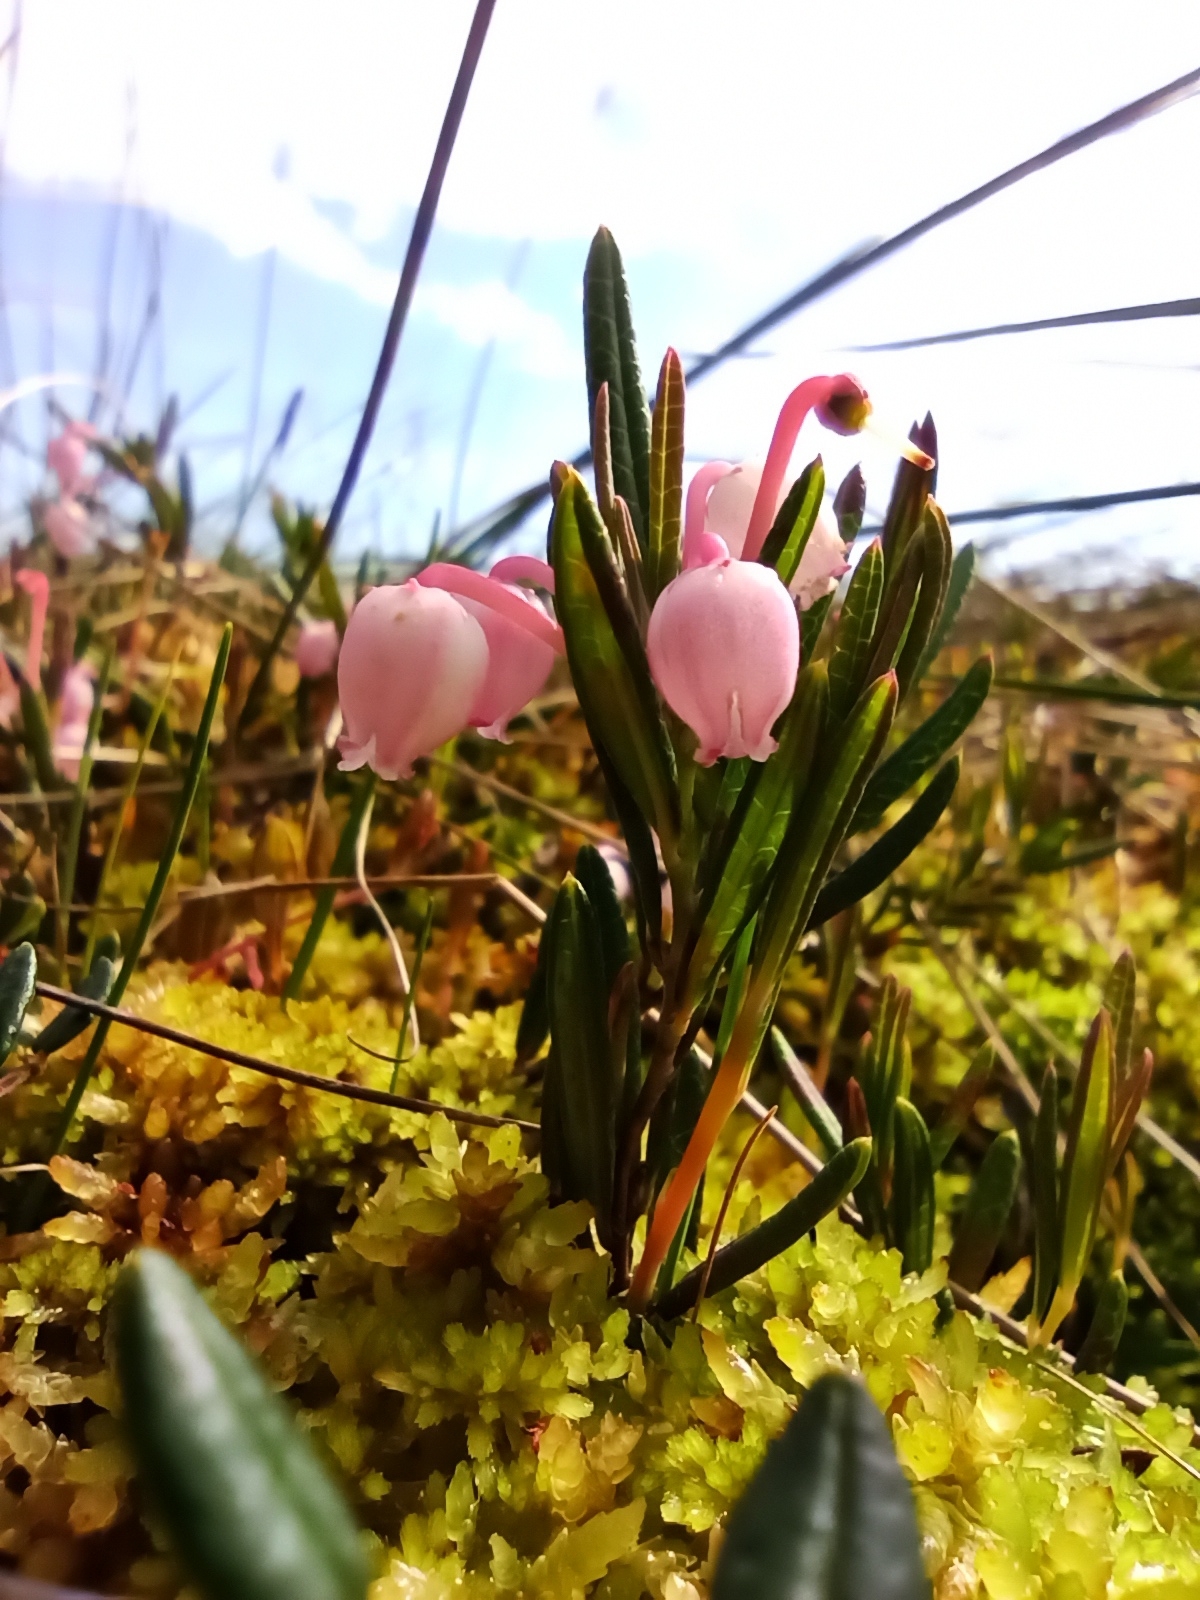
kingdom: Plantae
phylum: Tracheophyta
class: Magnoliopsida
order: Ericales
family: Ericaceae
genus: Andromeda
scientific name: Andromeda polifolia
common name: Bog-rosemary
